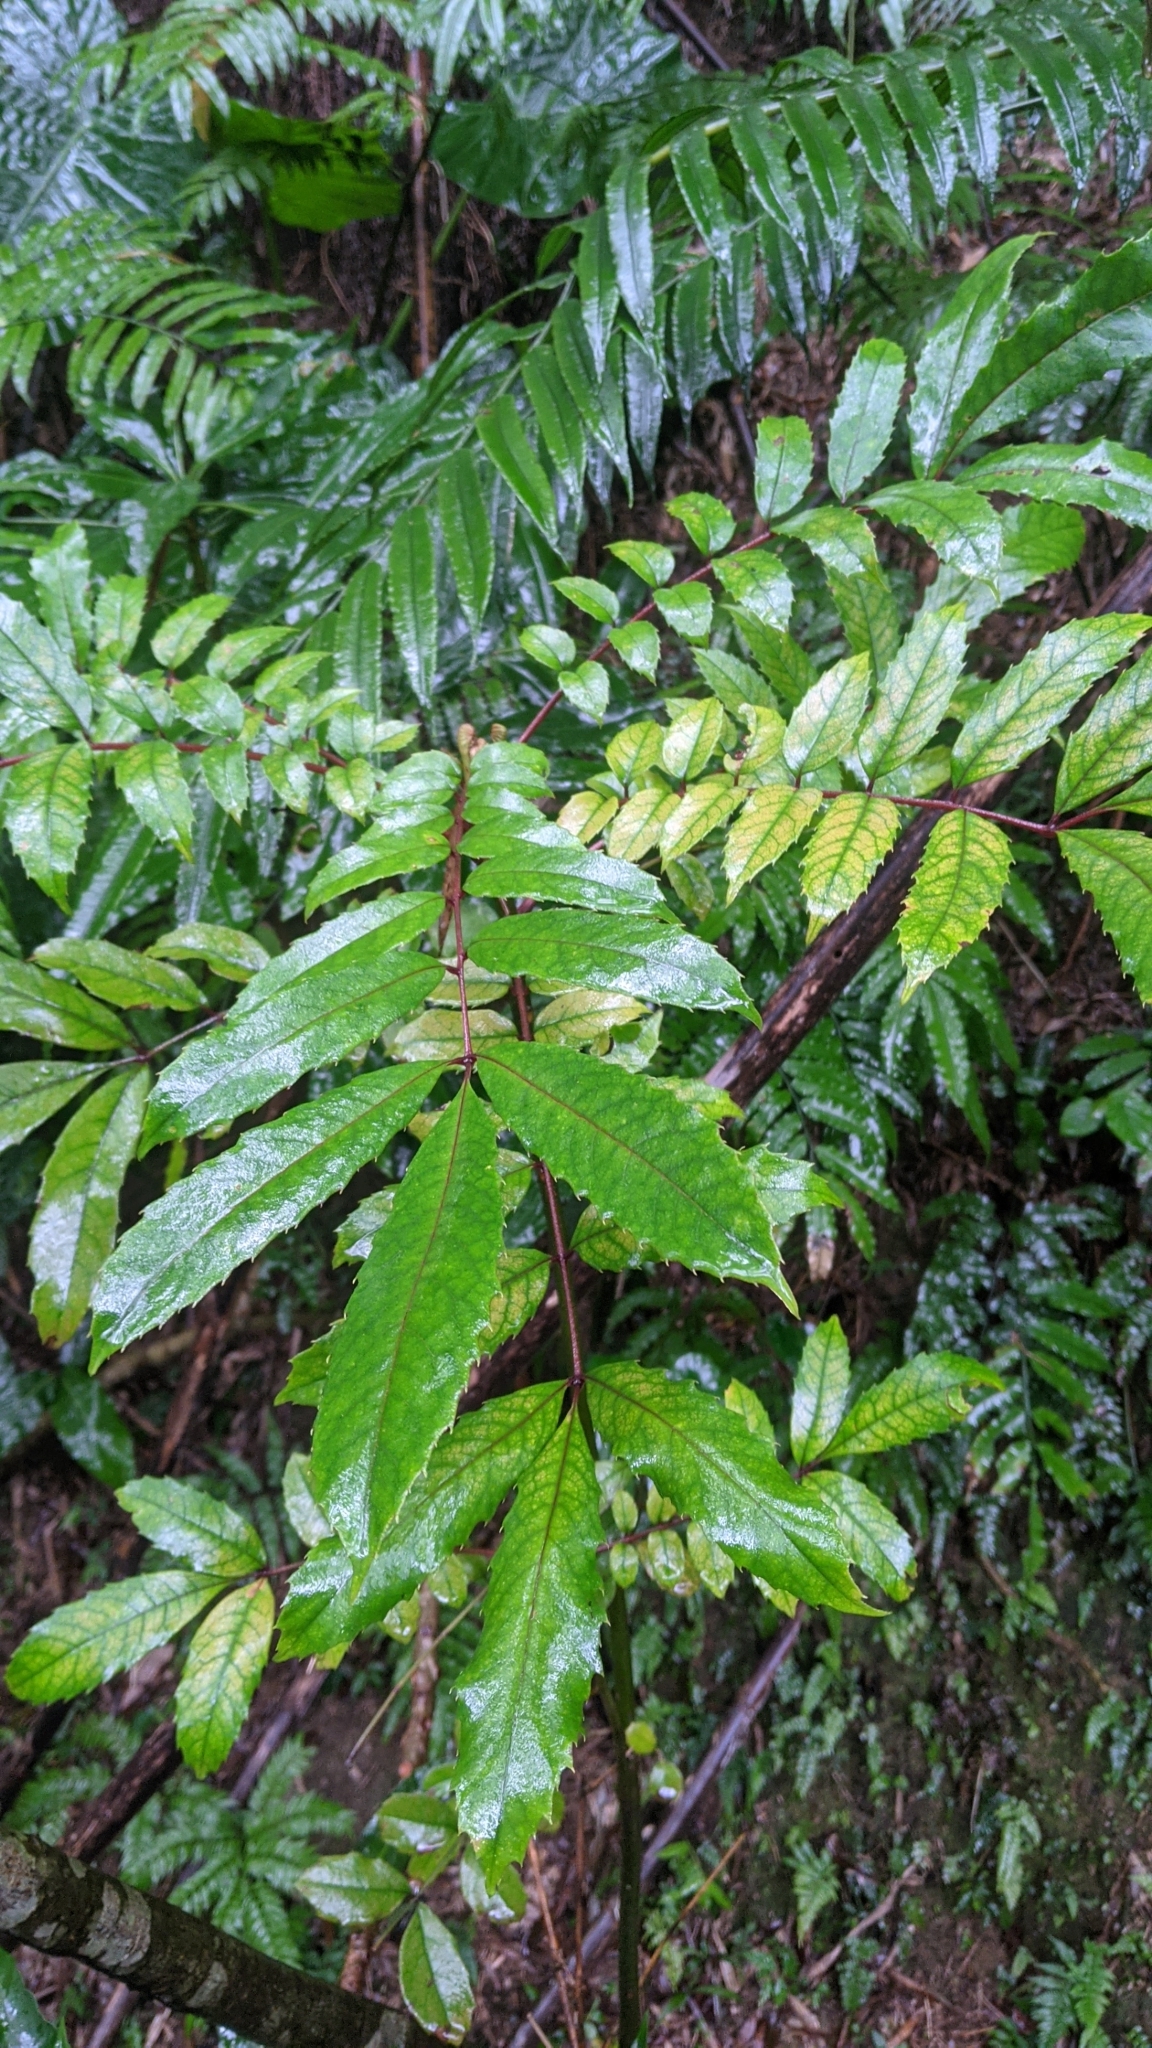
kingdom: Plantae
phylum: Tracheophyta
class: Magnoliopsida
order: Proteales
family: Sabiaceae
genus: Meliosma
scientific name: Meliosma rhoifolia
